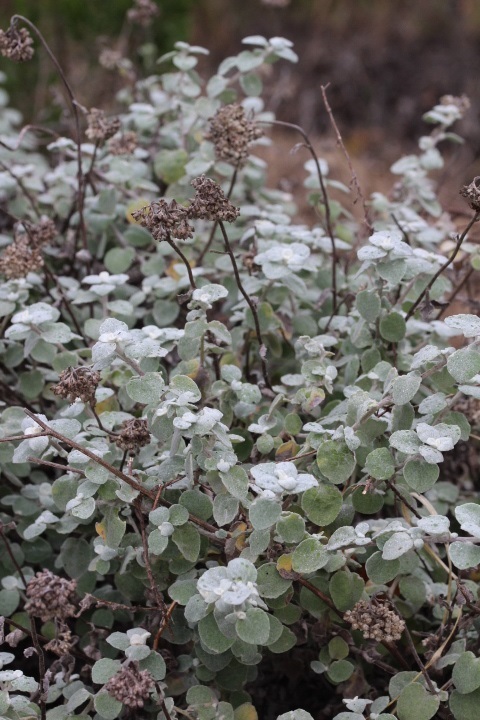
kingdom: Plantae
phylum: Tracheophyta
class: Magnoliopsida
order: Asterales
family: Asteraceae
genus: Helichrysum
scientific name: Helichrysum petiolare
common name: Licorice-plant
